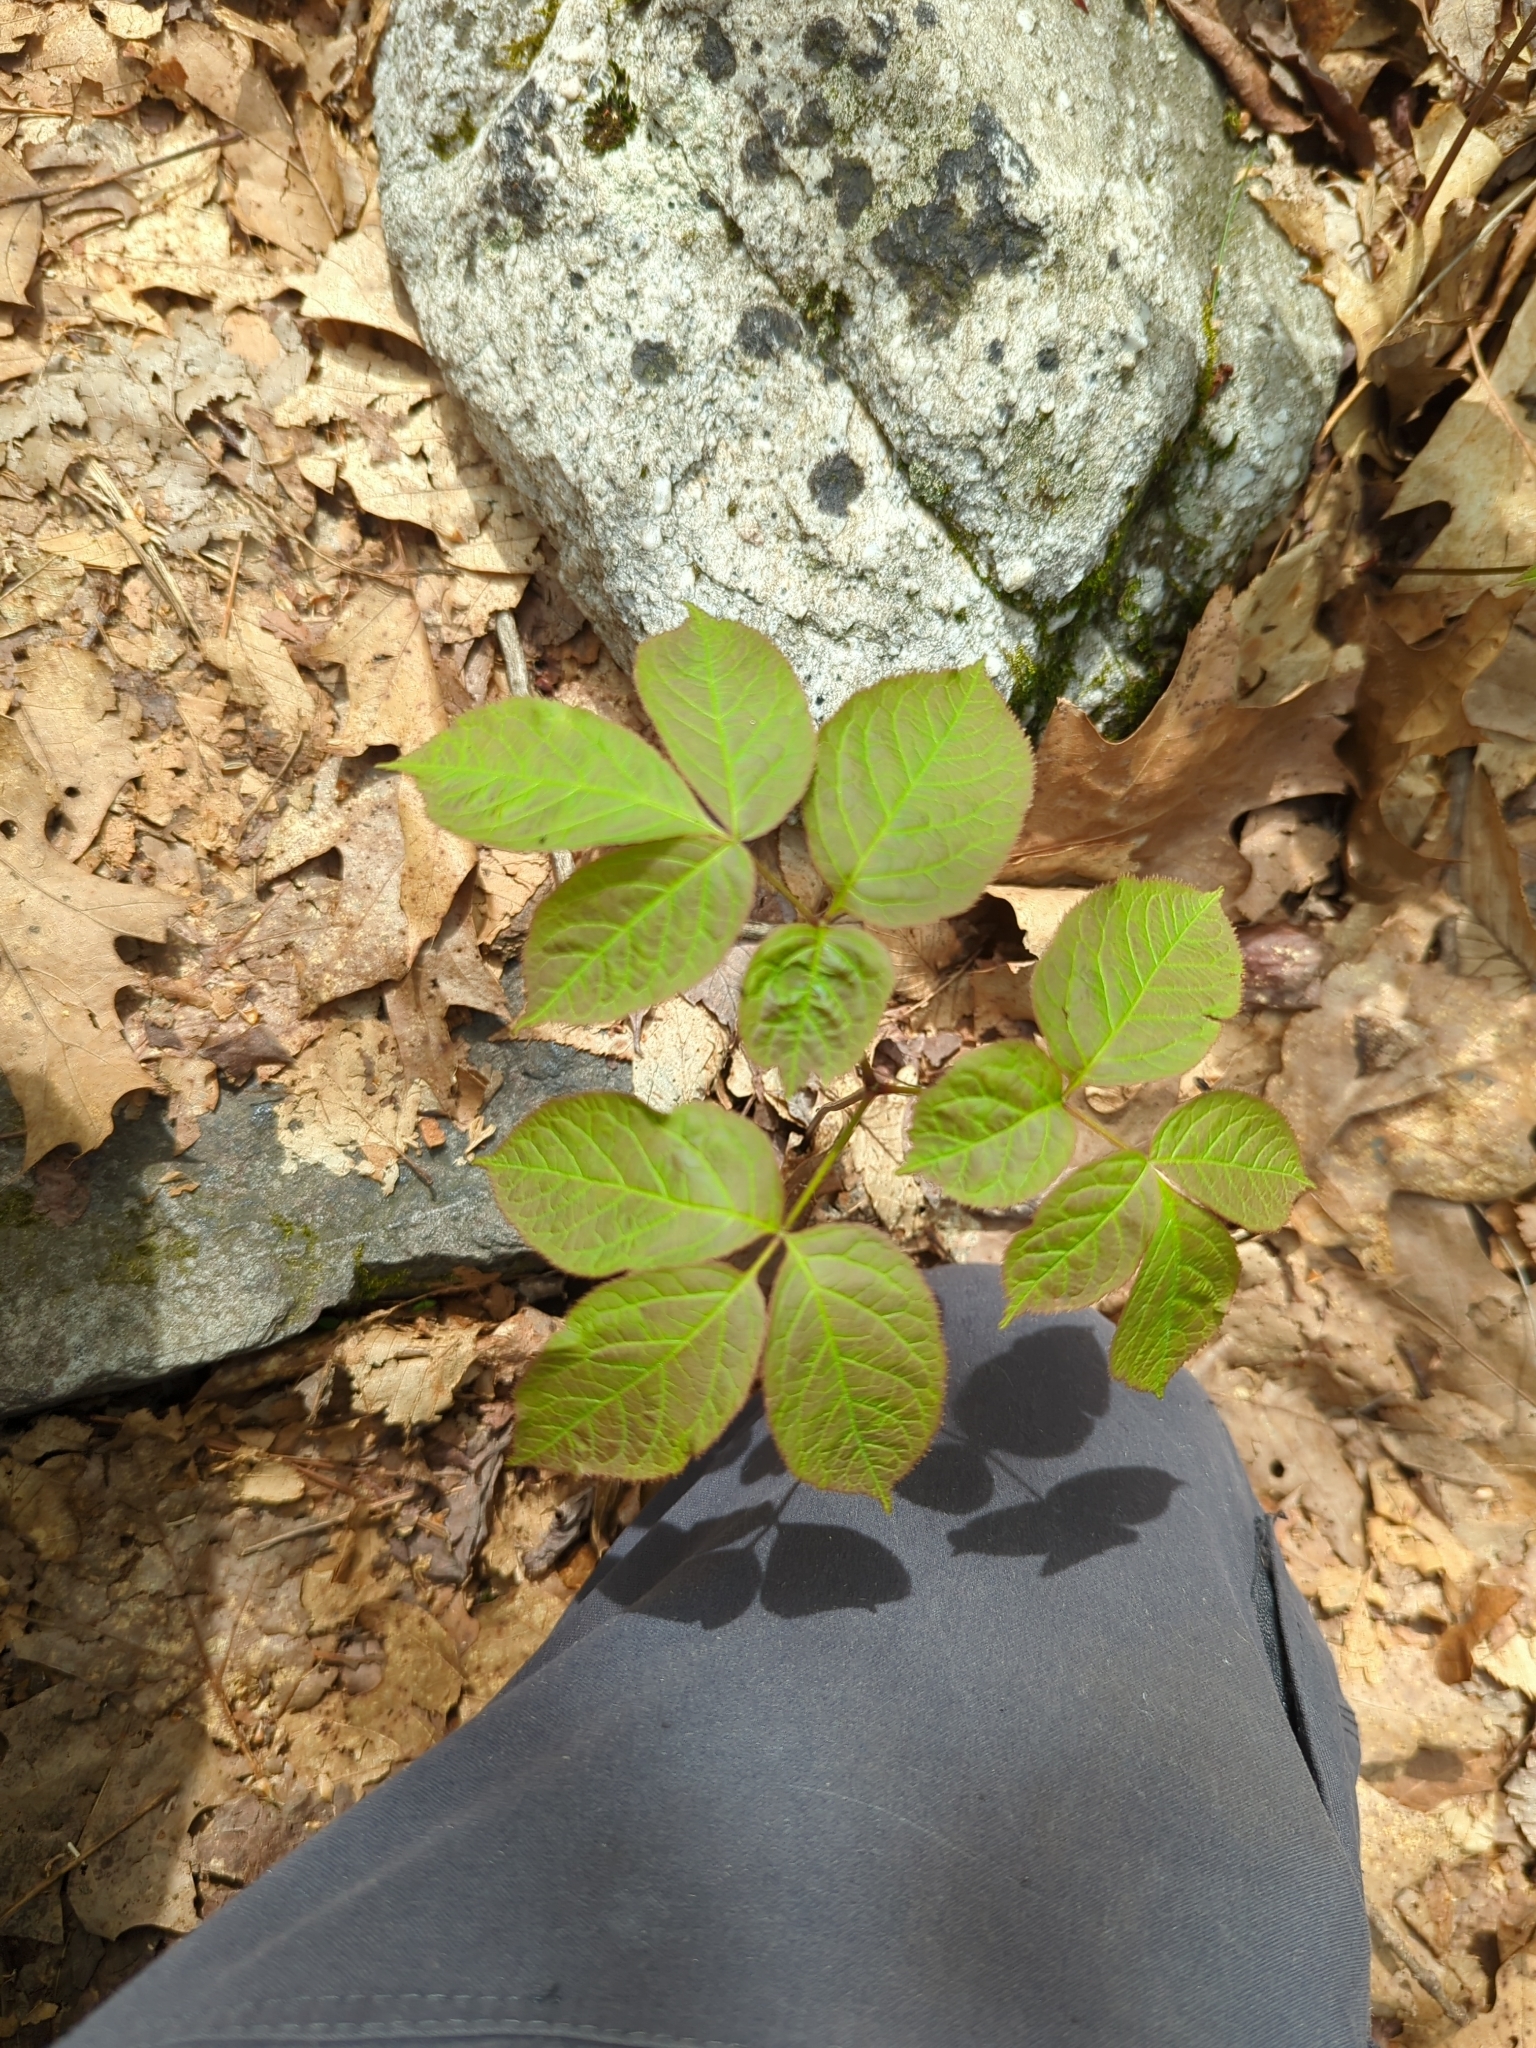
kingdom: Plantae
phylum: Tracheophyta
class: Magnoliopsida
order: Apiales
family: Araliaceae
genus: Aralia
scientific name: Aralia nudicaulis
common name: Wild sarsaparilla
